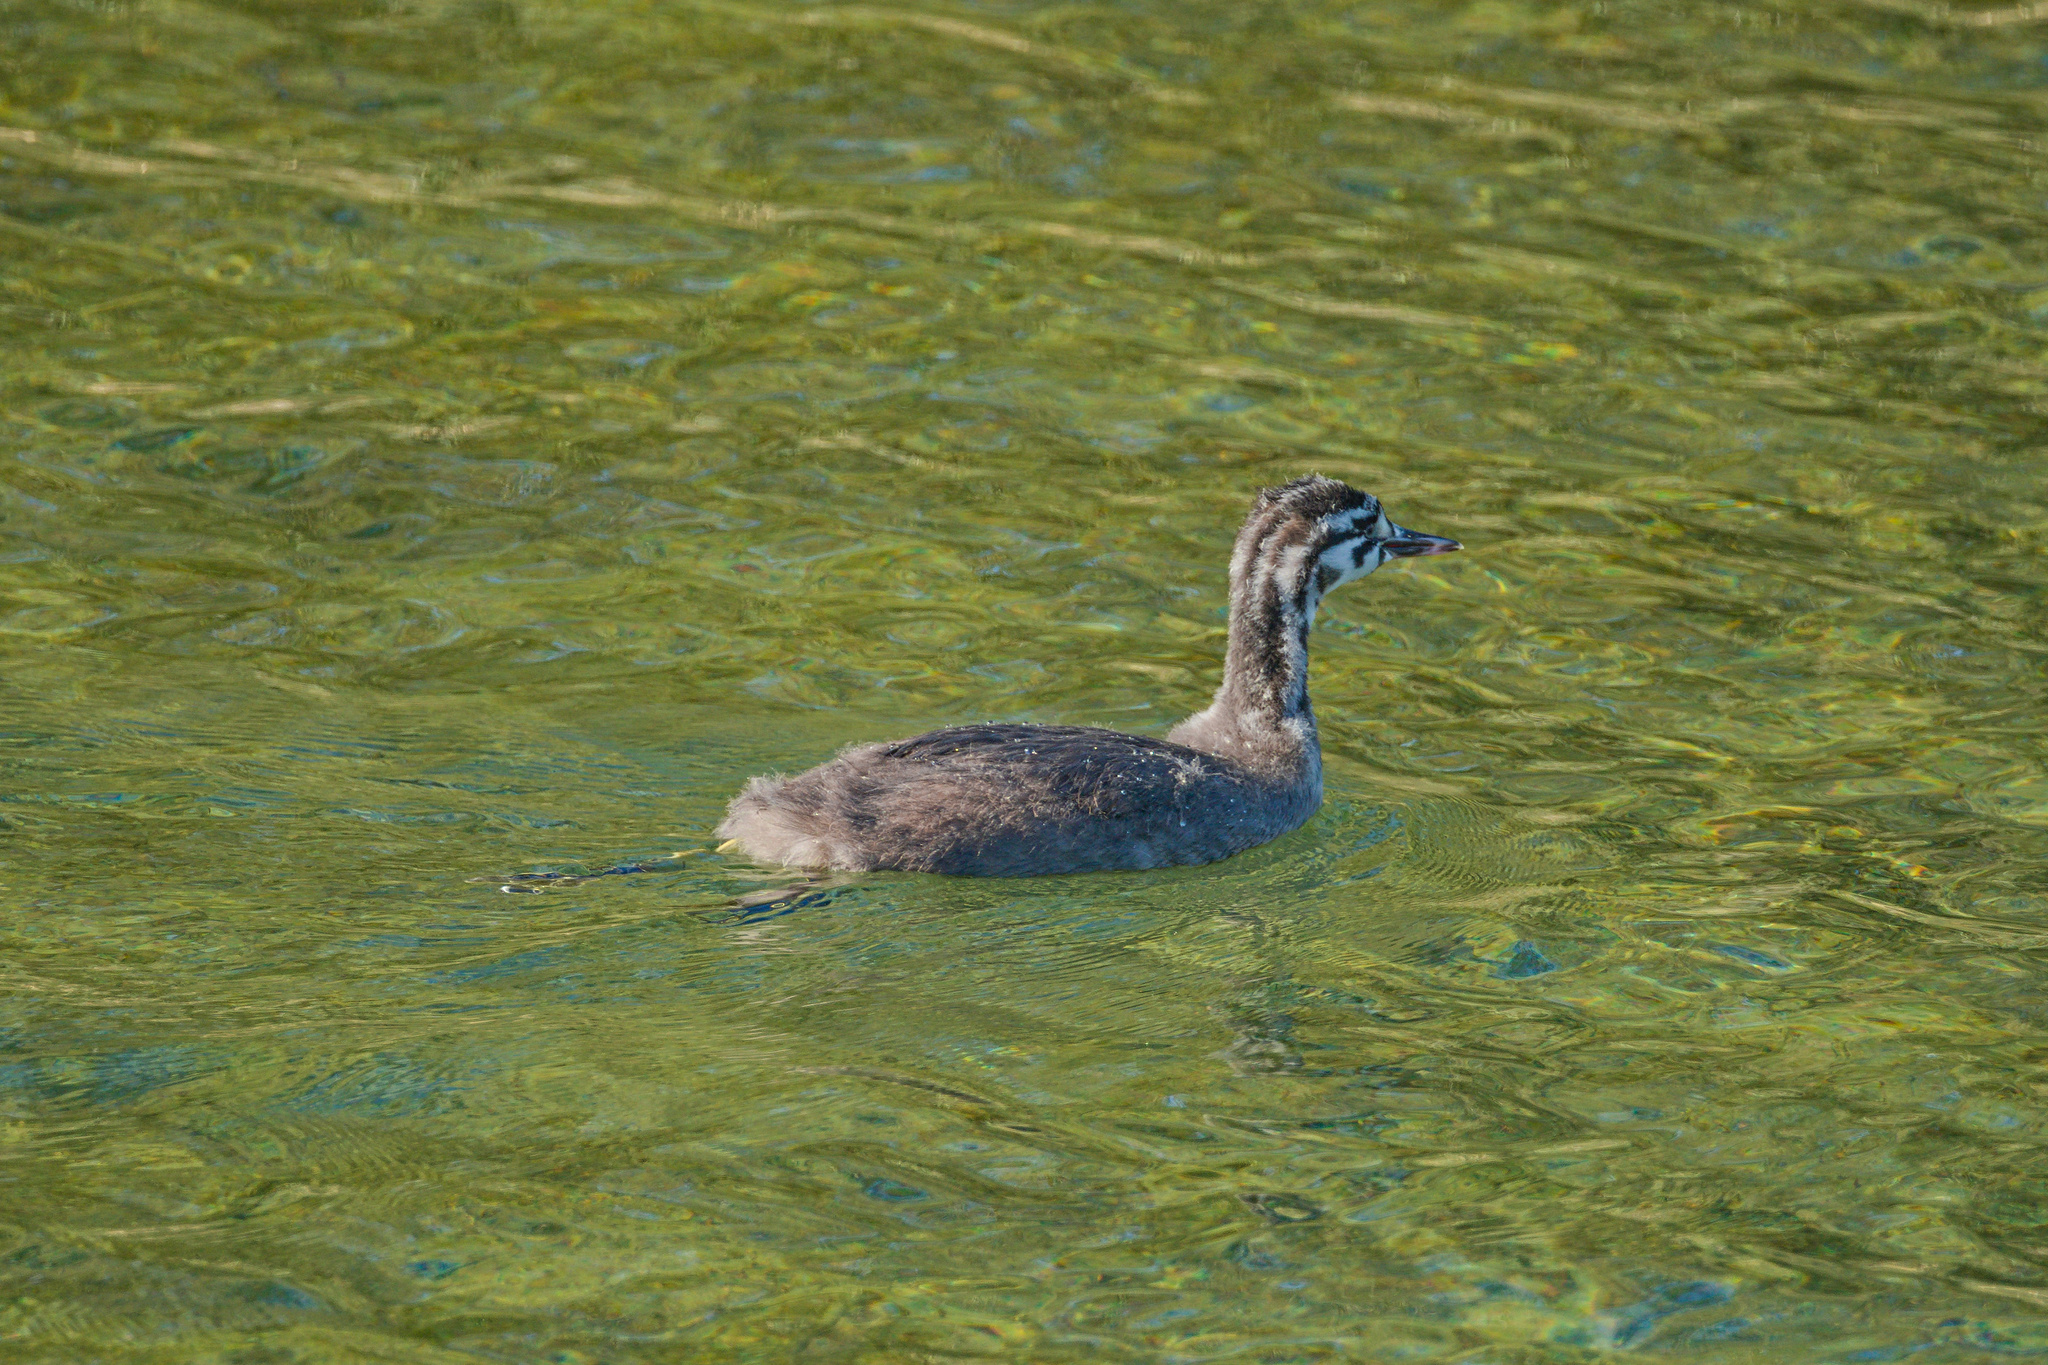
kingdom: Animalia
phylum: Chordata
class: Aves
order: Podicipediformes
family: Podicipedidae
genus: Podiceps
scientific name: Podiceps cristatus
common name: Great crested grebe
